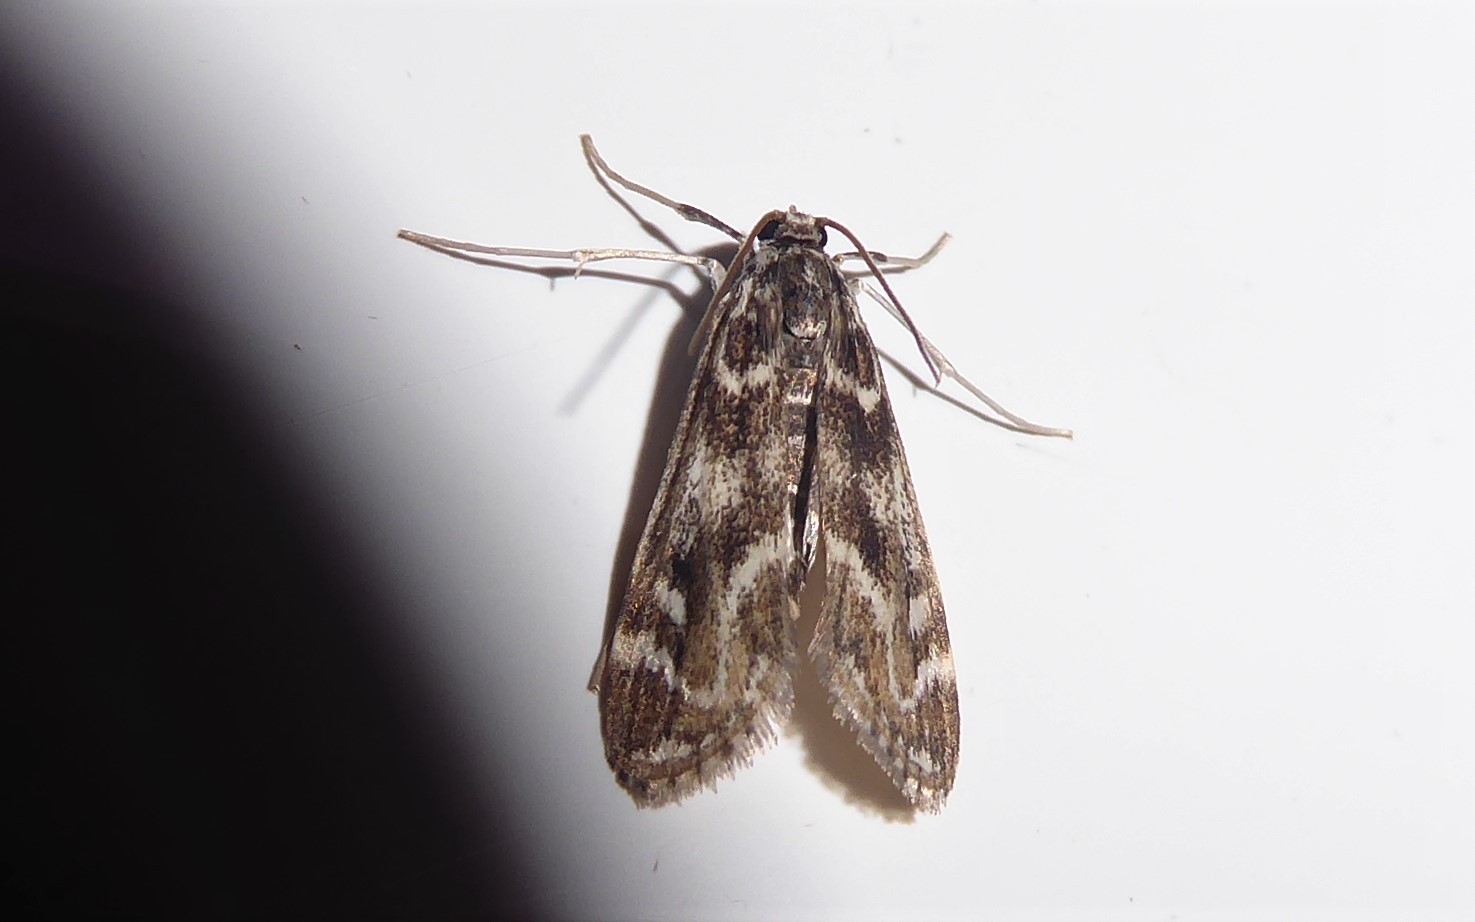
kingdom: Animalia
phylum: Arthropoda
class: Insecta
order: Lepidoptera
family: Crambidae
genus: Hygraula
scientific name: Hygraula nitens
